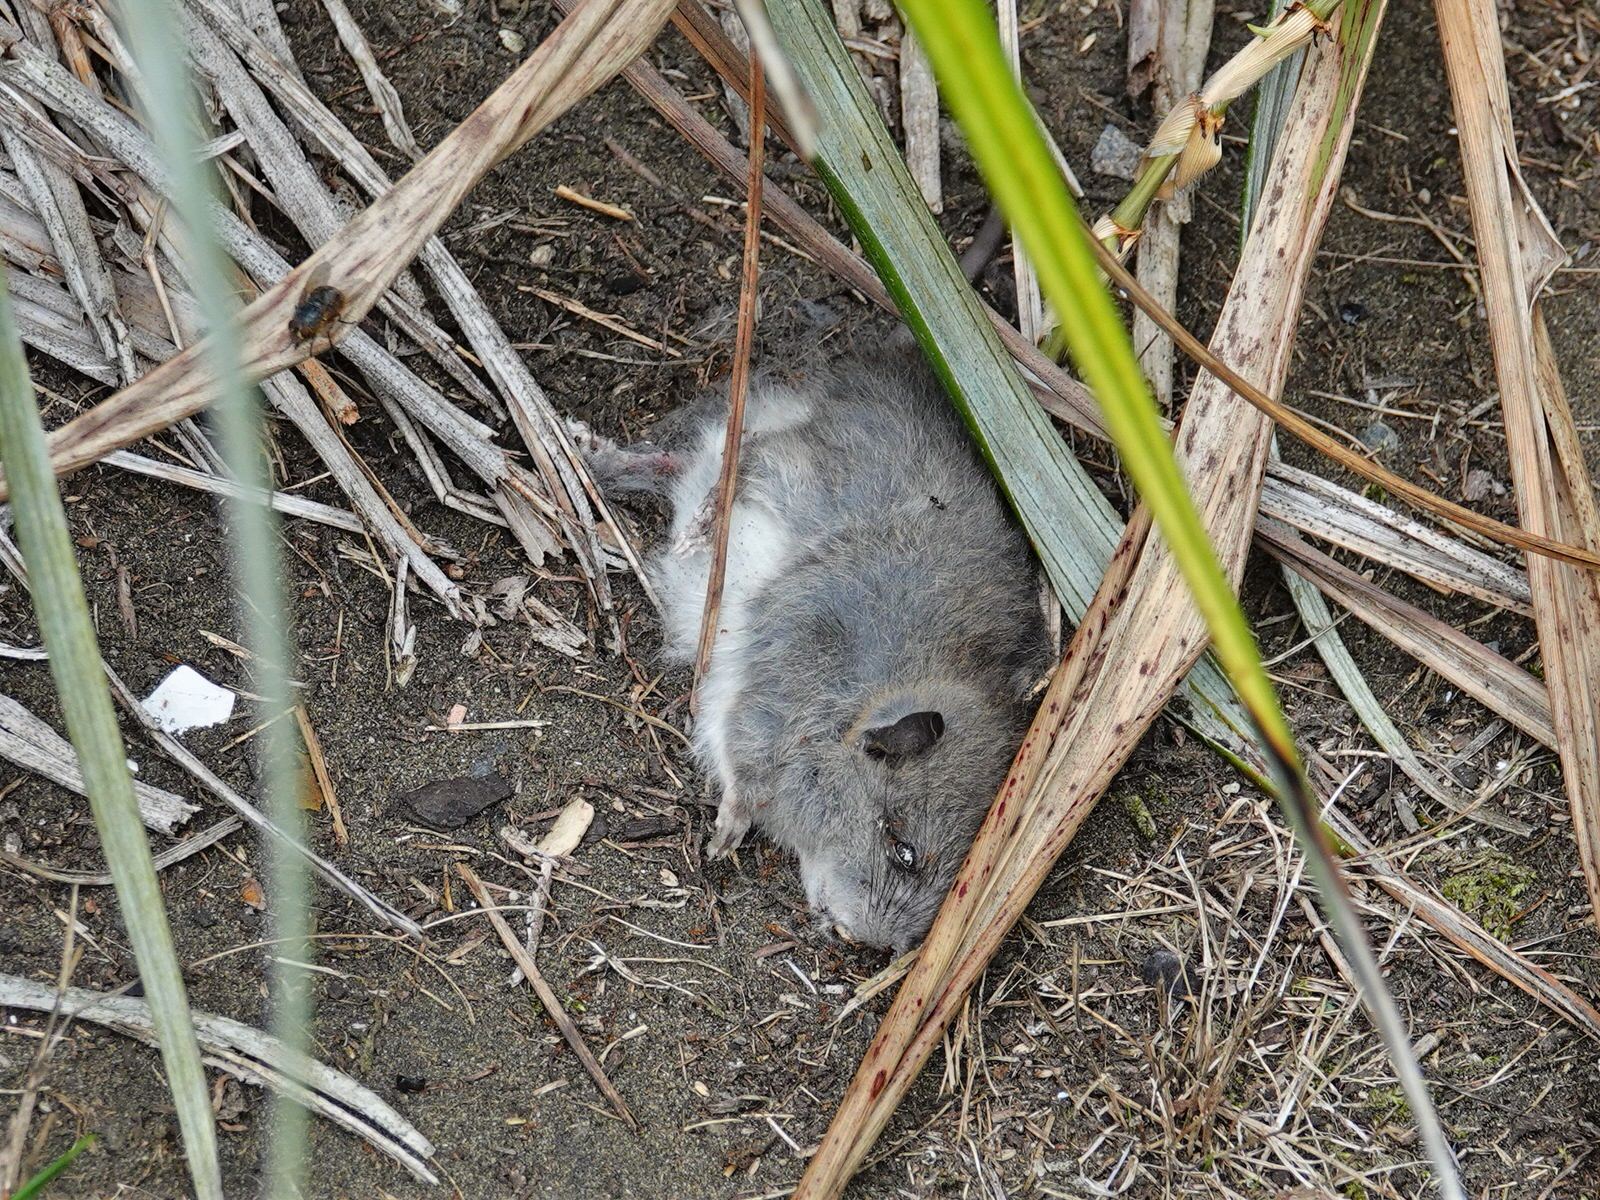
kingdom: Animalia
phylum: Chordata
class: Mammalia
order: Rodentia
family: Muridae
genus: Rattus
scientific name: Rattus rattus
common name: Black rat
